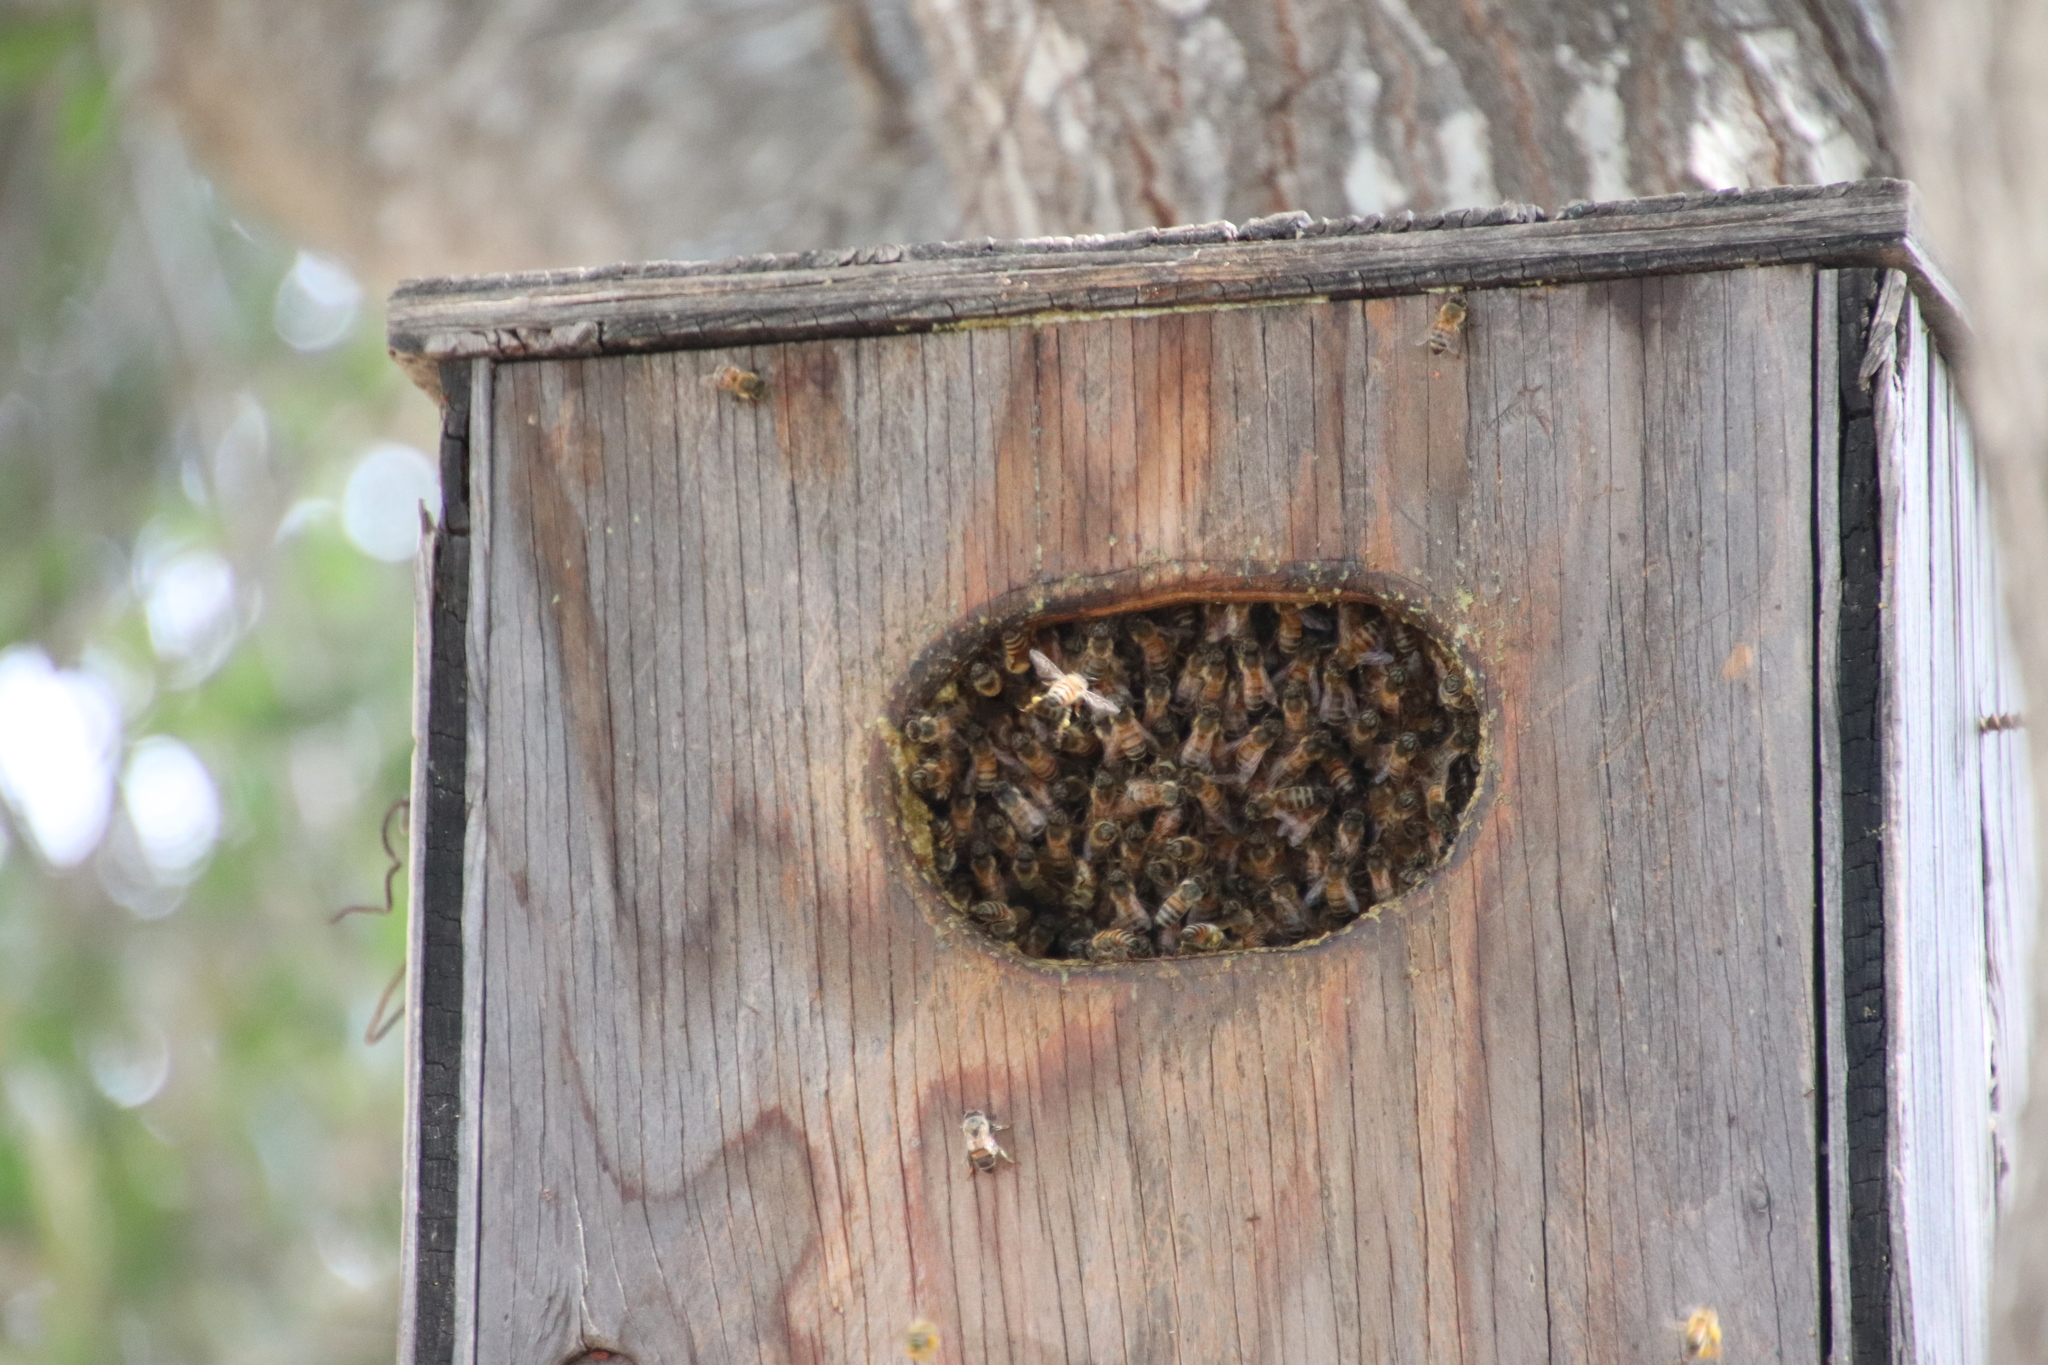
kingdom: Animalia
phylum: Arthropoda
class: Insecta
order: Hymenoptera
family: Apidae
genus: Apis
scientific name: Apis mellifera
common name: Honey bee
